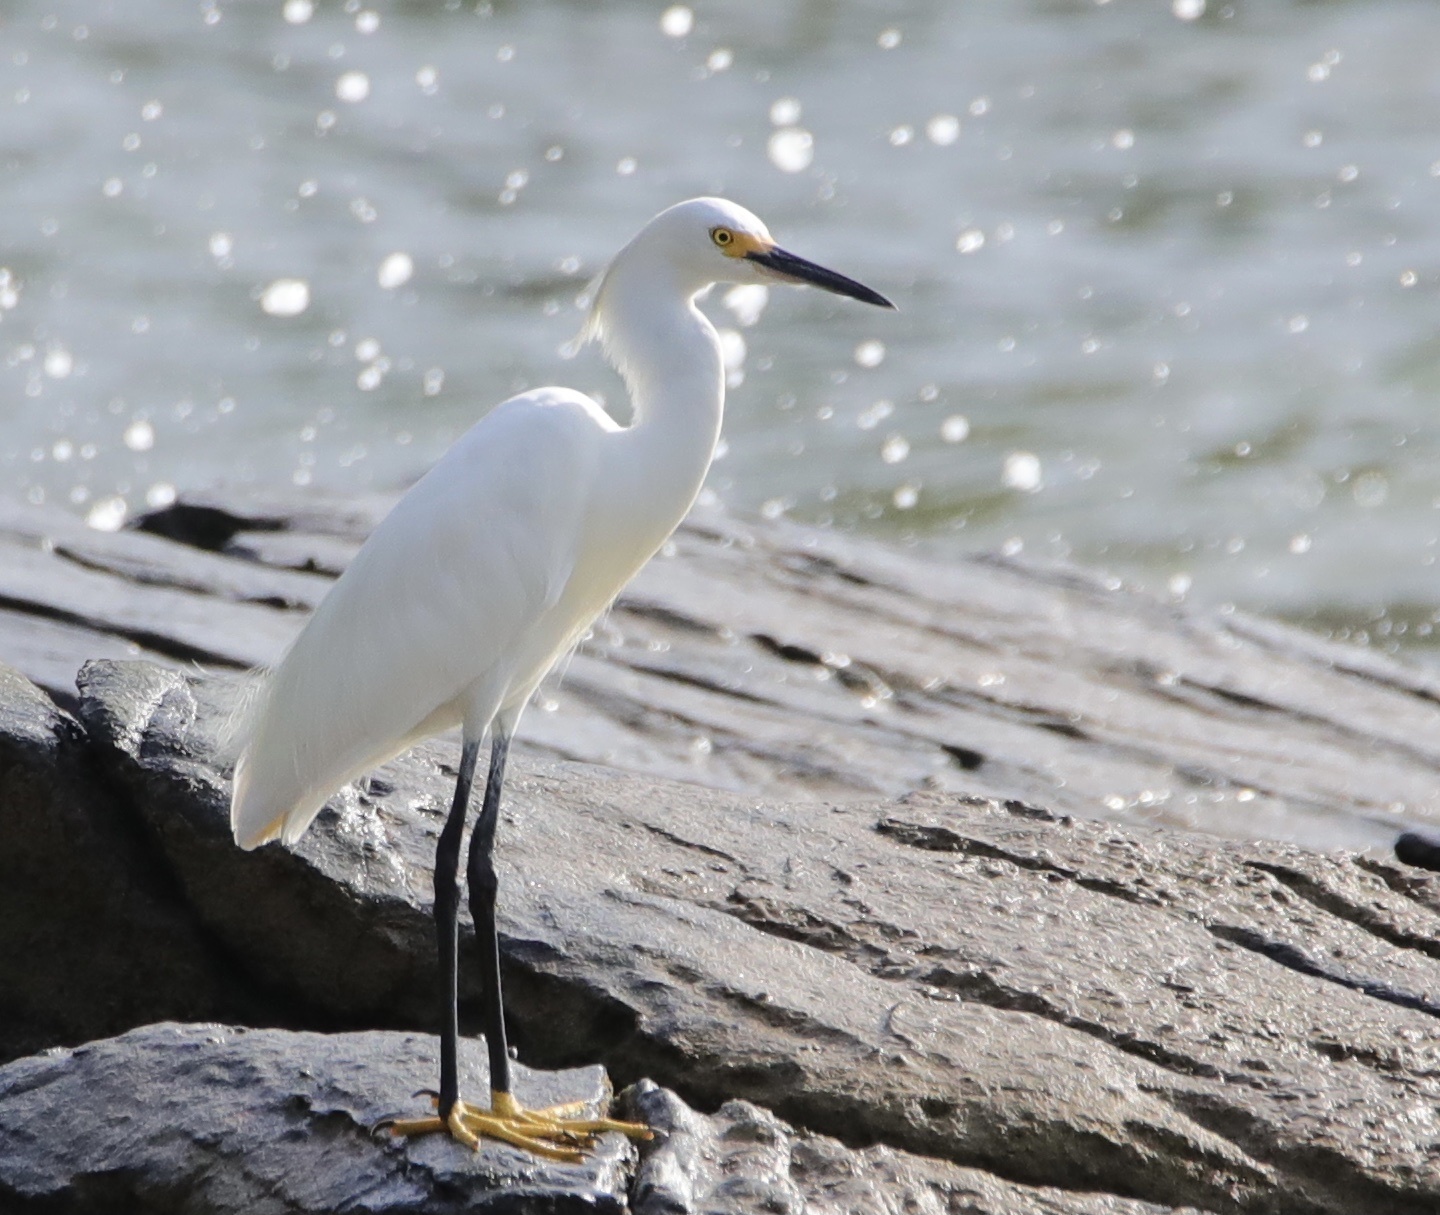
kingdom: Animalia
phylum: Chordata
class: Aves
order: Pelecaniformes
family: Ardeidae
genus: Egretta
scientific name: Egretta thula
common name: Snowy egret
